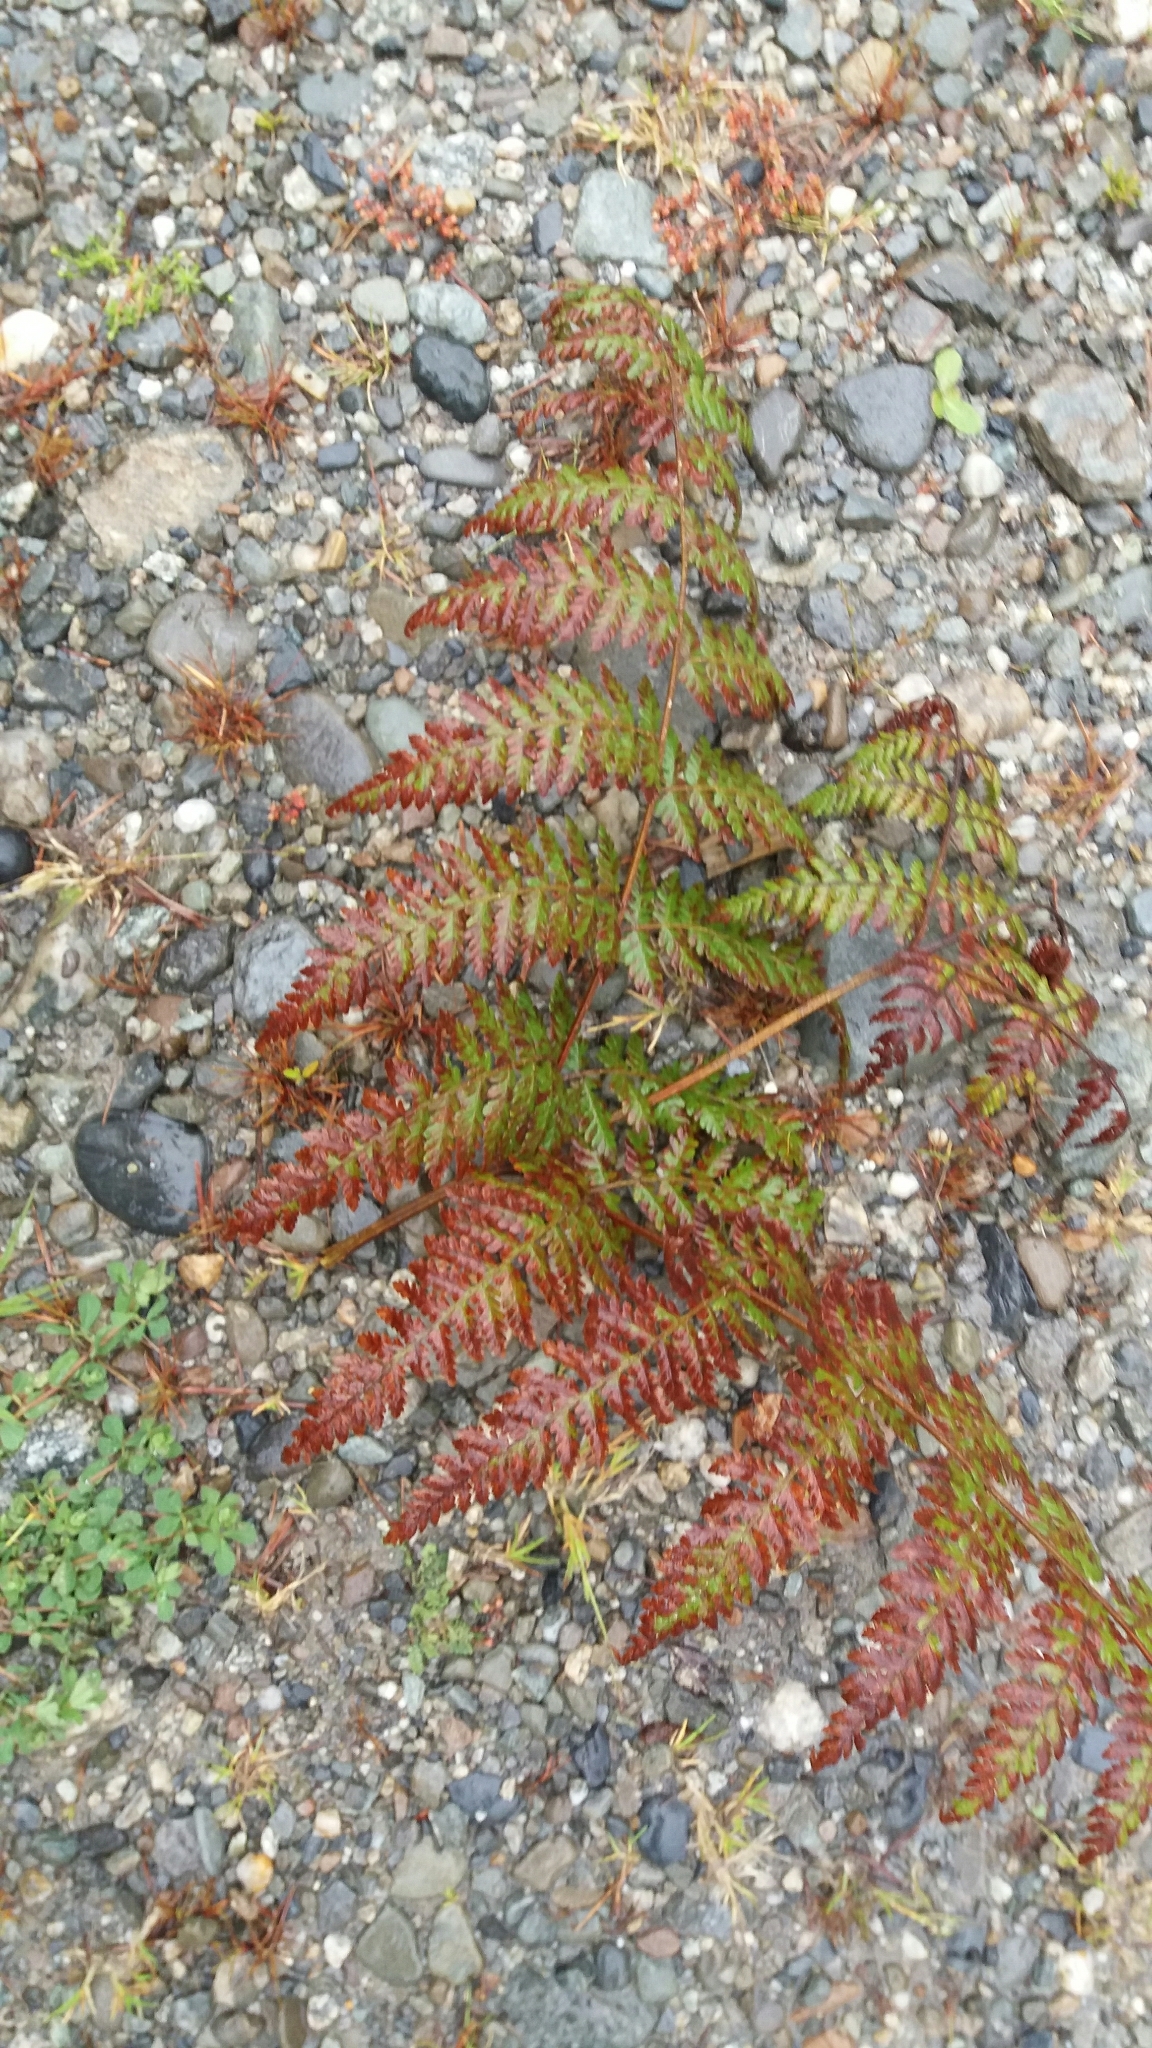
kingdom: Plantae
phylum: Tracheophyta
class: Polypodiopsida
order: Polypodiales
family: Dennstaedtiaceae
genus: Hypolepis
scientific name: Hypolepis ambigua
